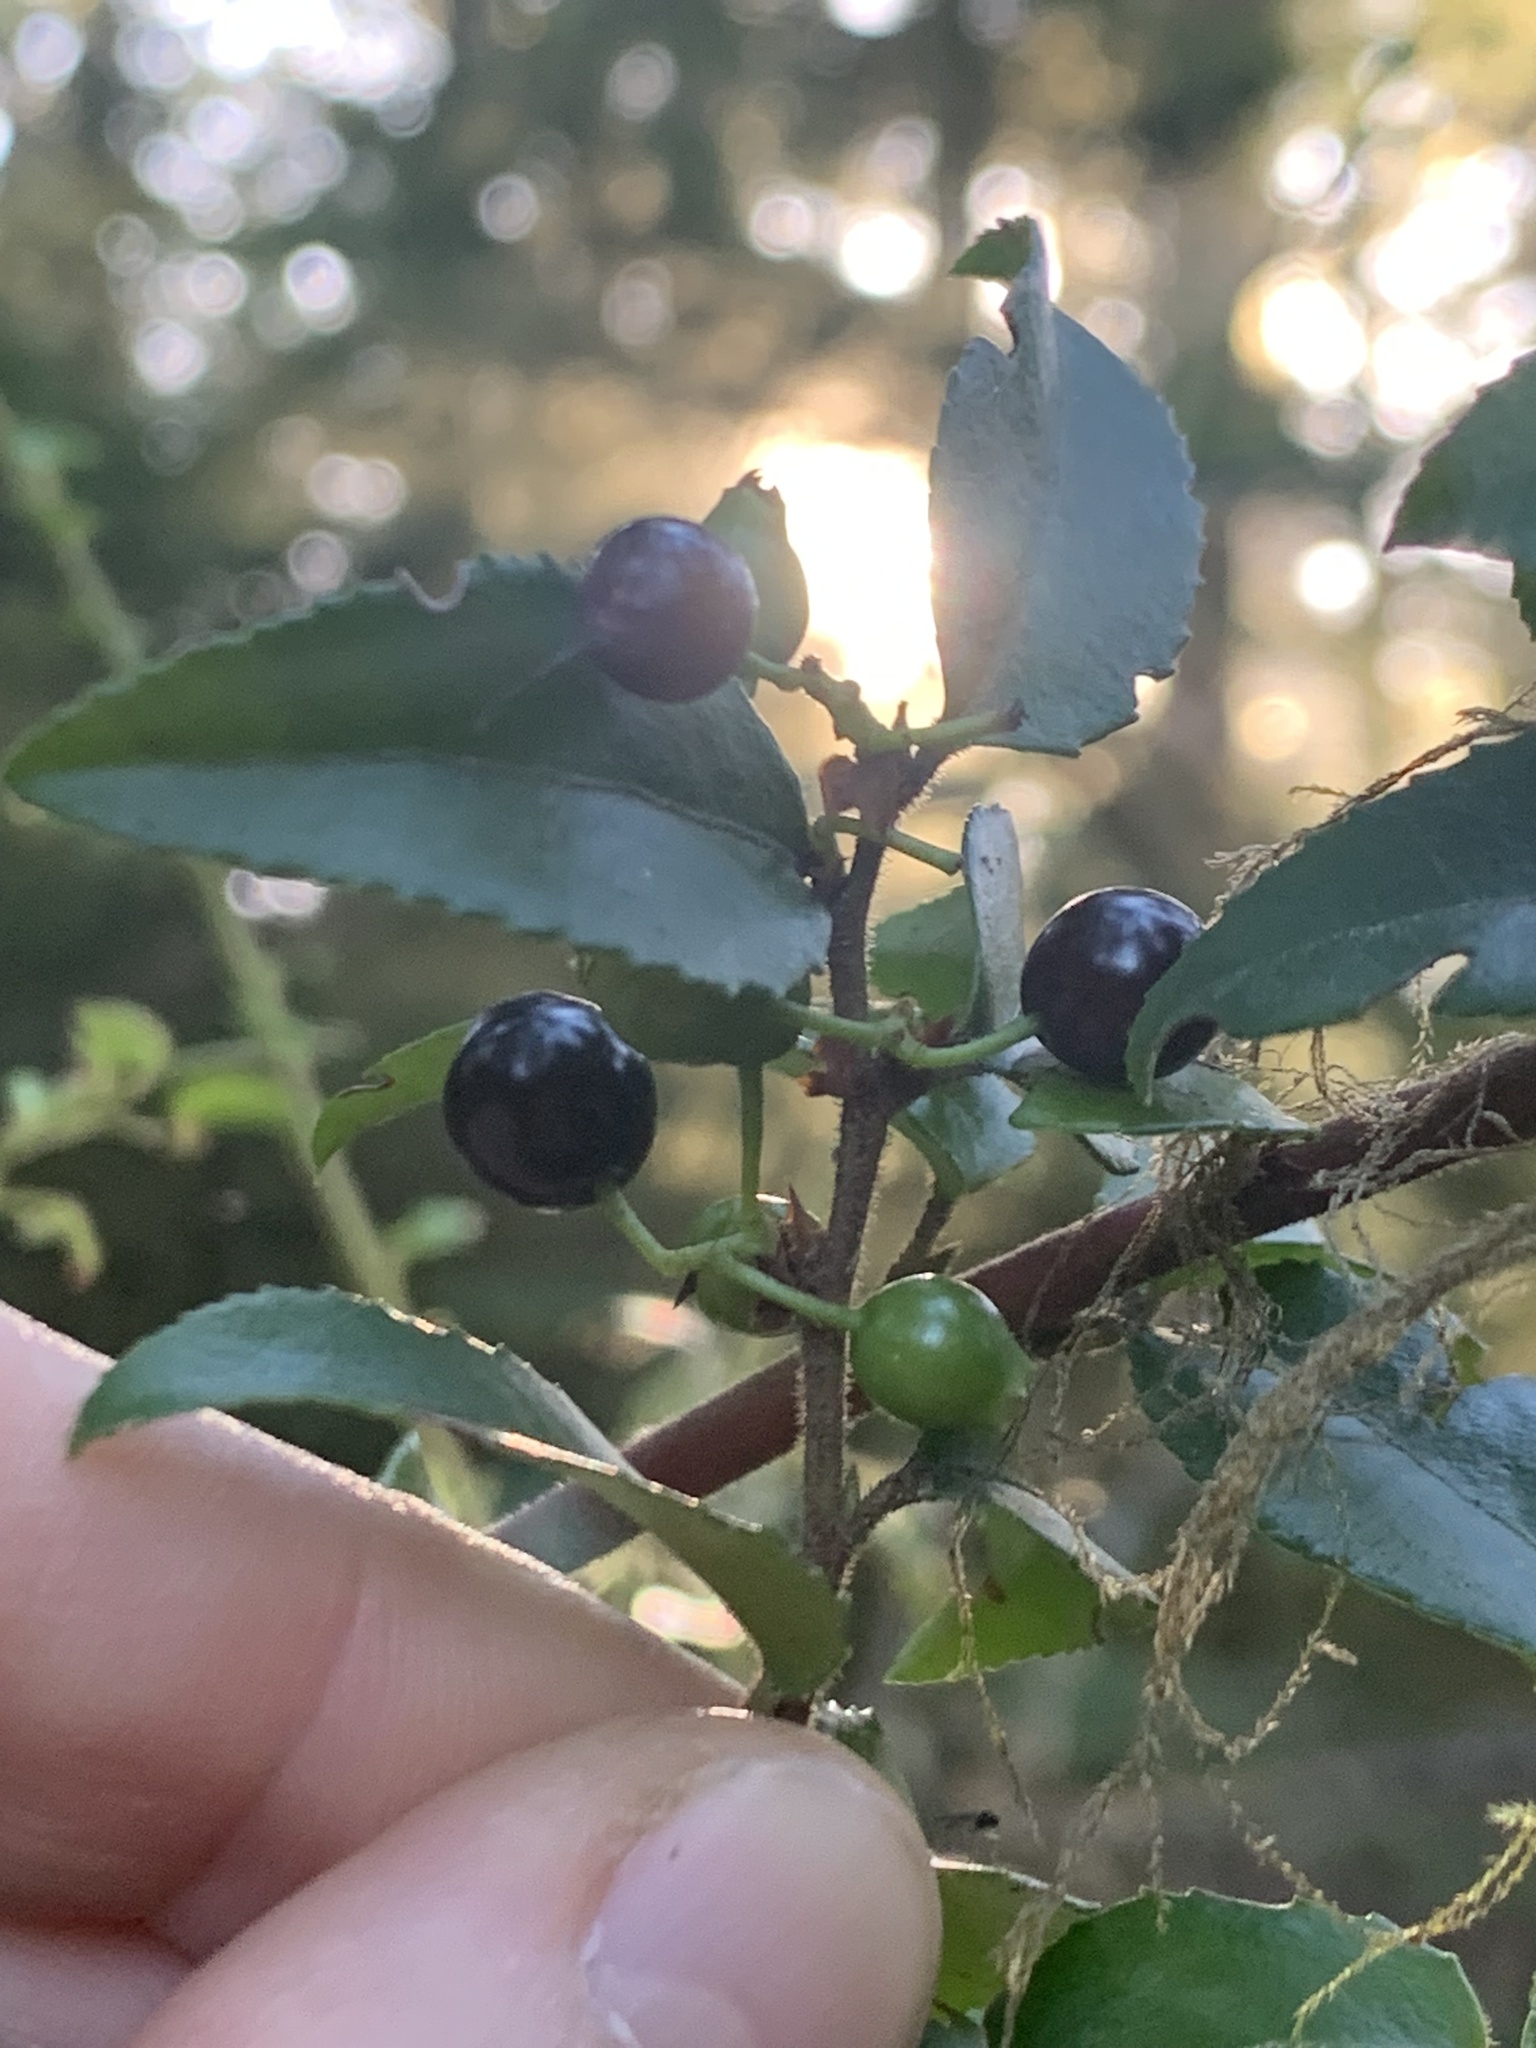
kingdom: Plantae
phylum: Tracheophyta
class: Magnoliopsida
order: Ericales
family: Ericaceae
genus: Vaccinium
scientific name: Vaccinium ovatum
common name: California-huckleberry
